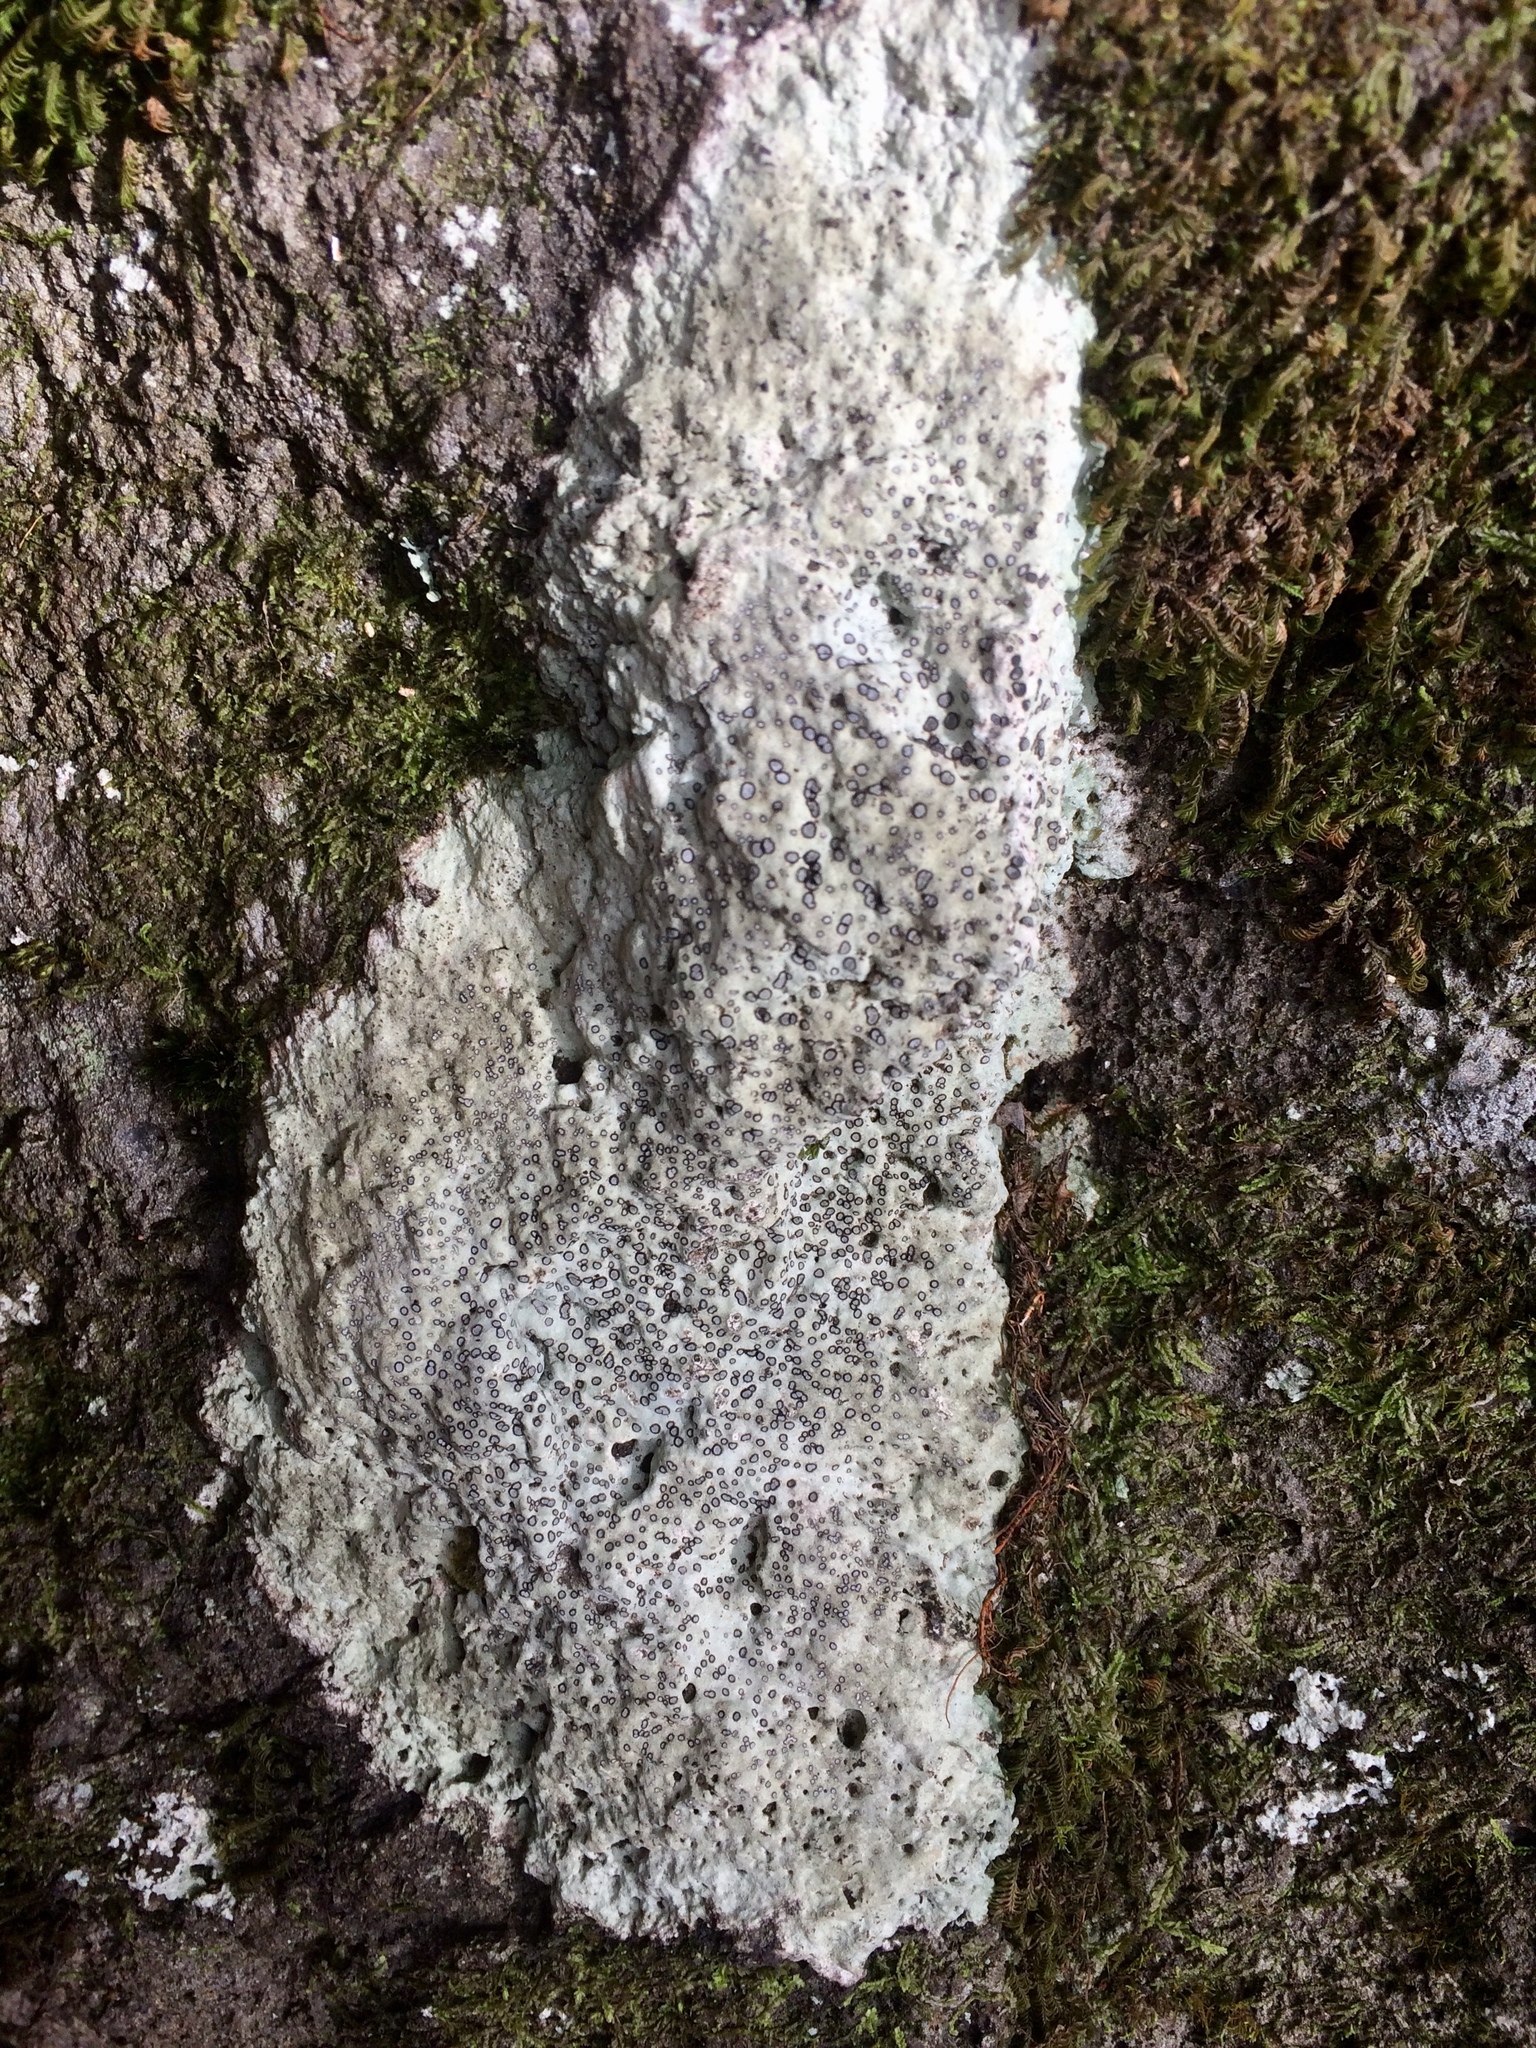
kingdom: Fungi
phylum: Ascomycota
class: Lecanoromycetes
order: Lecideales
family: Lecideaceae
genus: Porpidia
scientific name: Porpidia albocaerulescens
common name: Smokey-eyed boulder lichen
